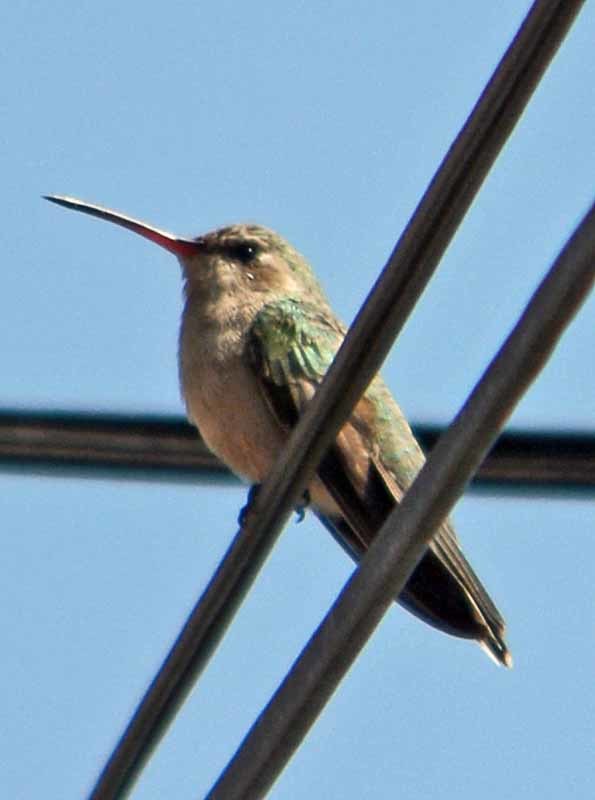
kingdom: Animalia
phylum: Chordata
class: Aves
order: Apodiformes
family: Trochilidae
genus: Cynanthus
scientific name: Cynanthus latirostris
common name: Broad-billed hummingbird
